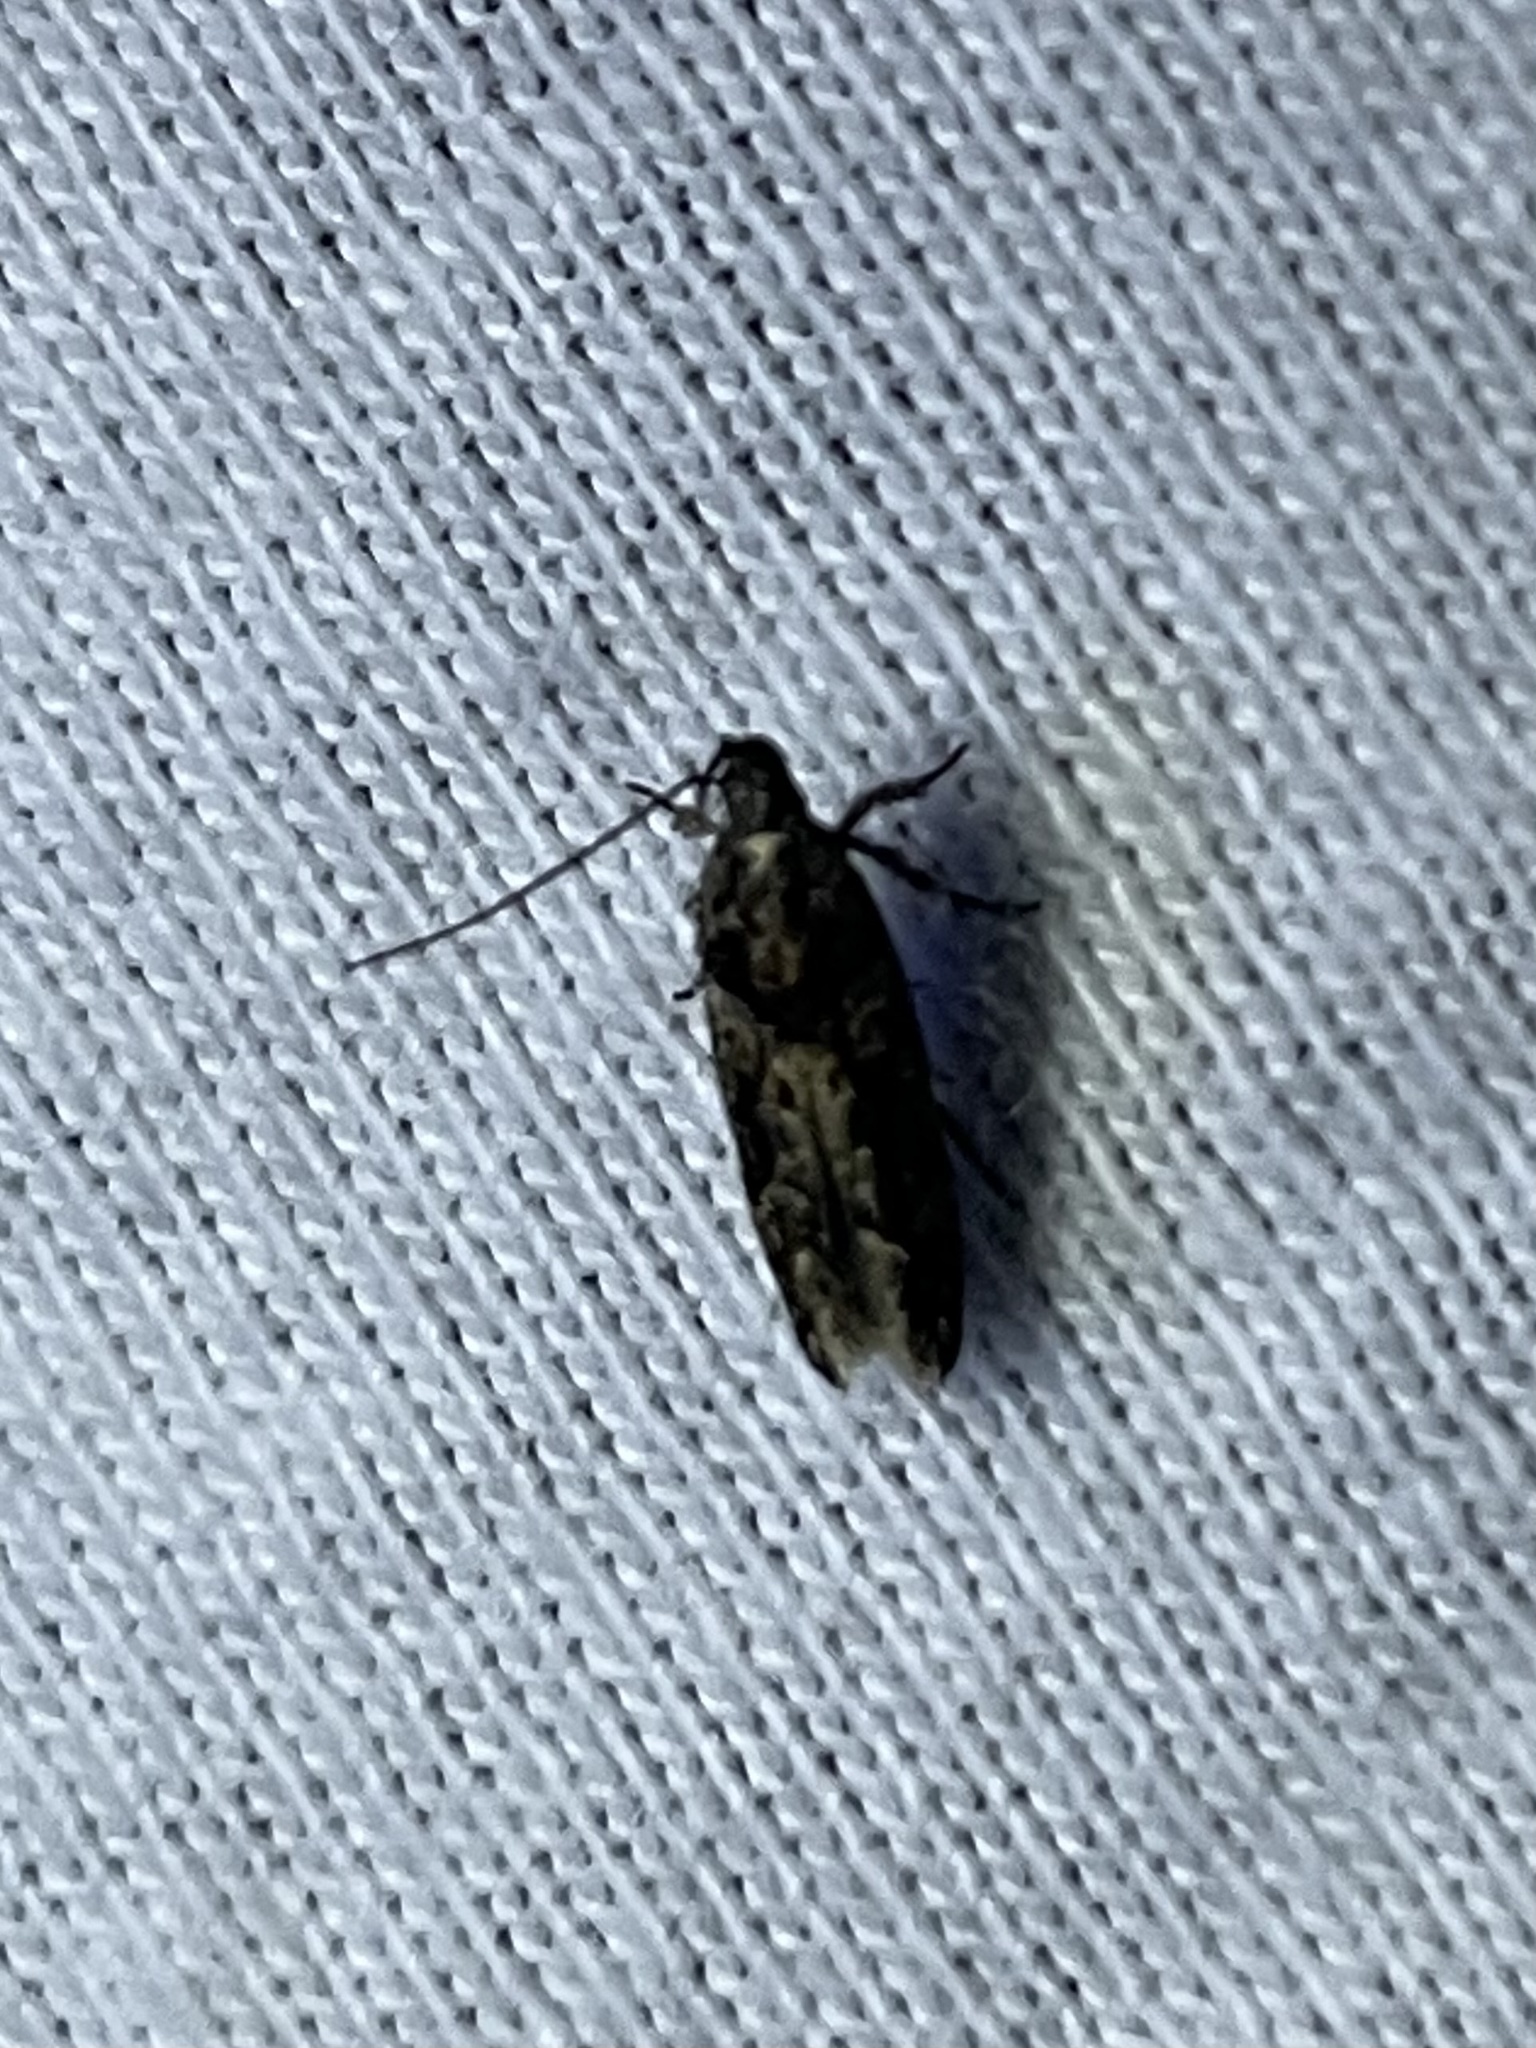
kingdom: Animalia
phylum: Arthropoda
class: Insecta
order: Lepidoptera
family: Gelechiidae
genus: Telphusa
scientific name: Telphusa perspicua
